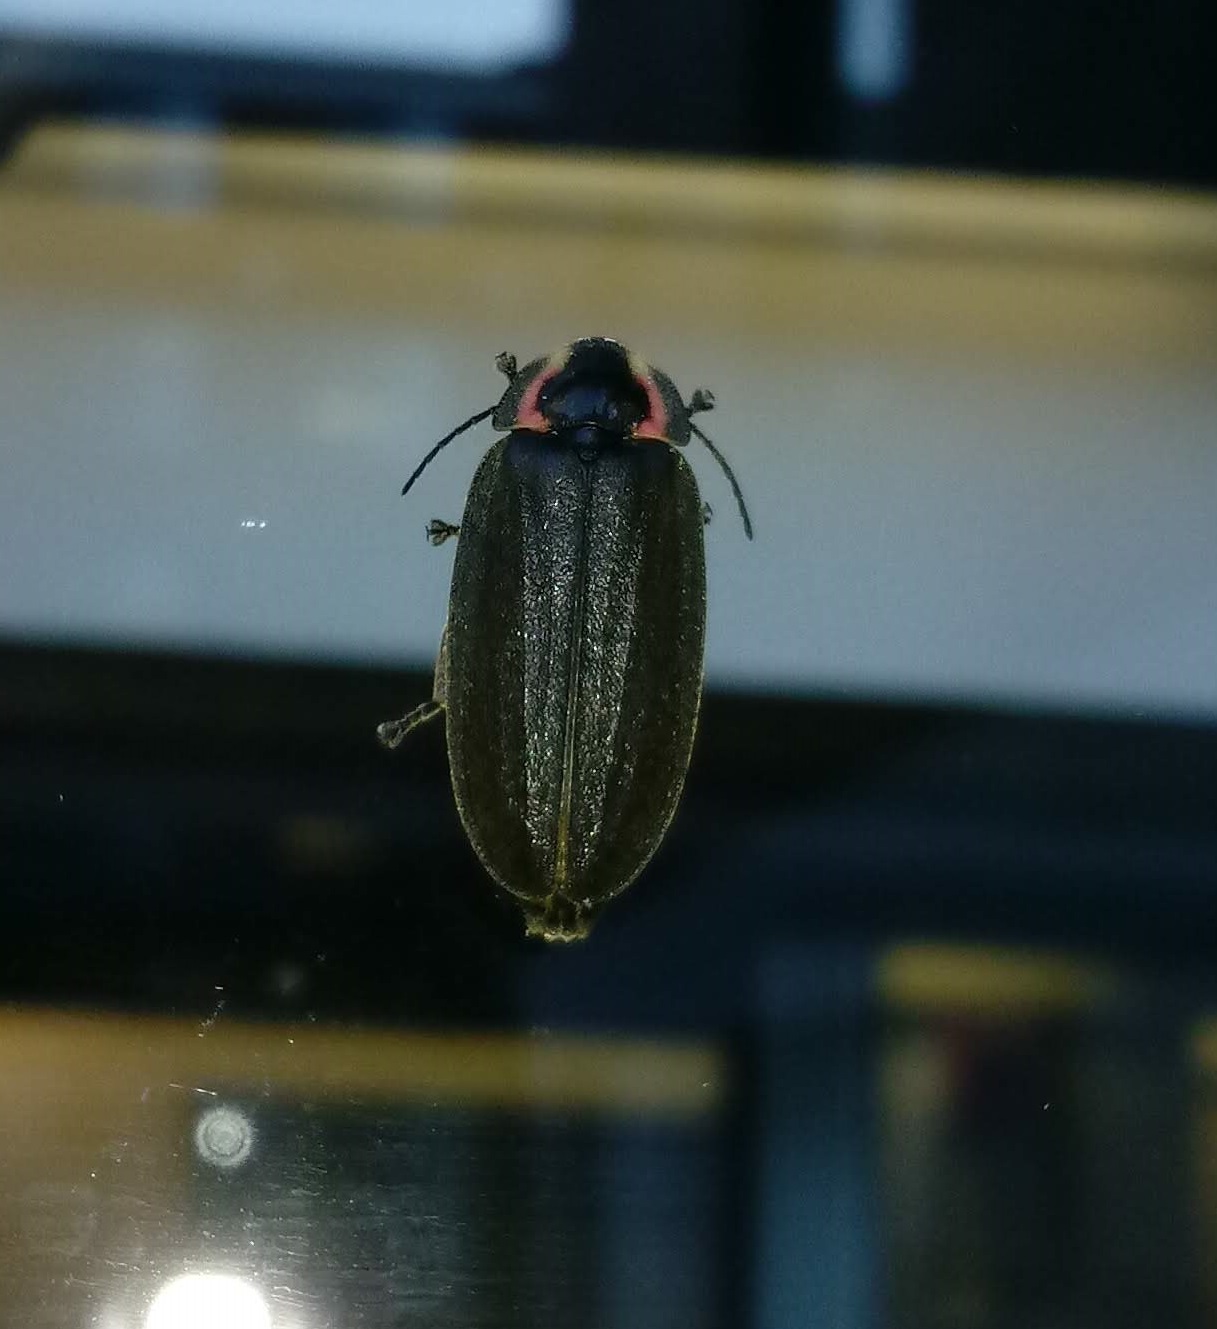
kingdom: Animalia
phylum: Arthropoda
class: Insecta
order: Coleoptera
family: Lampyridae
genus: Photinus
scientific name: Photinus corrusca
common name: Winter firefly
